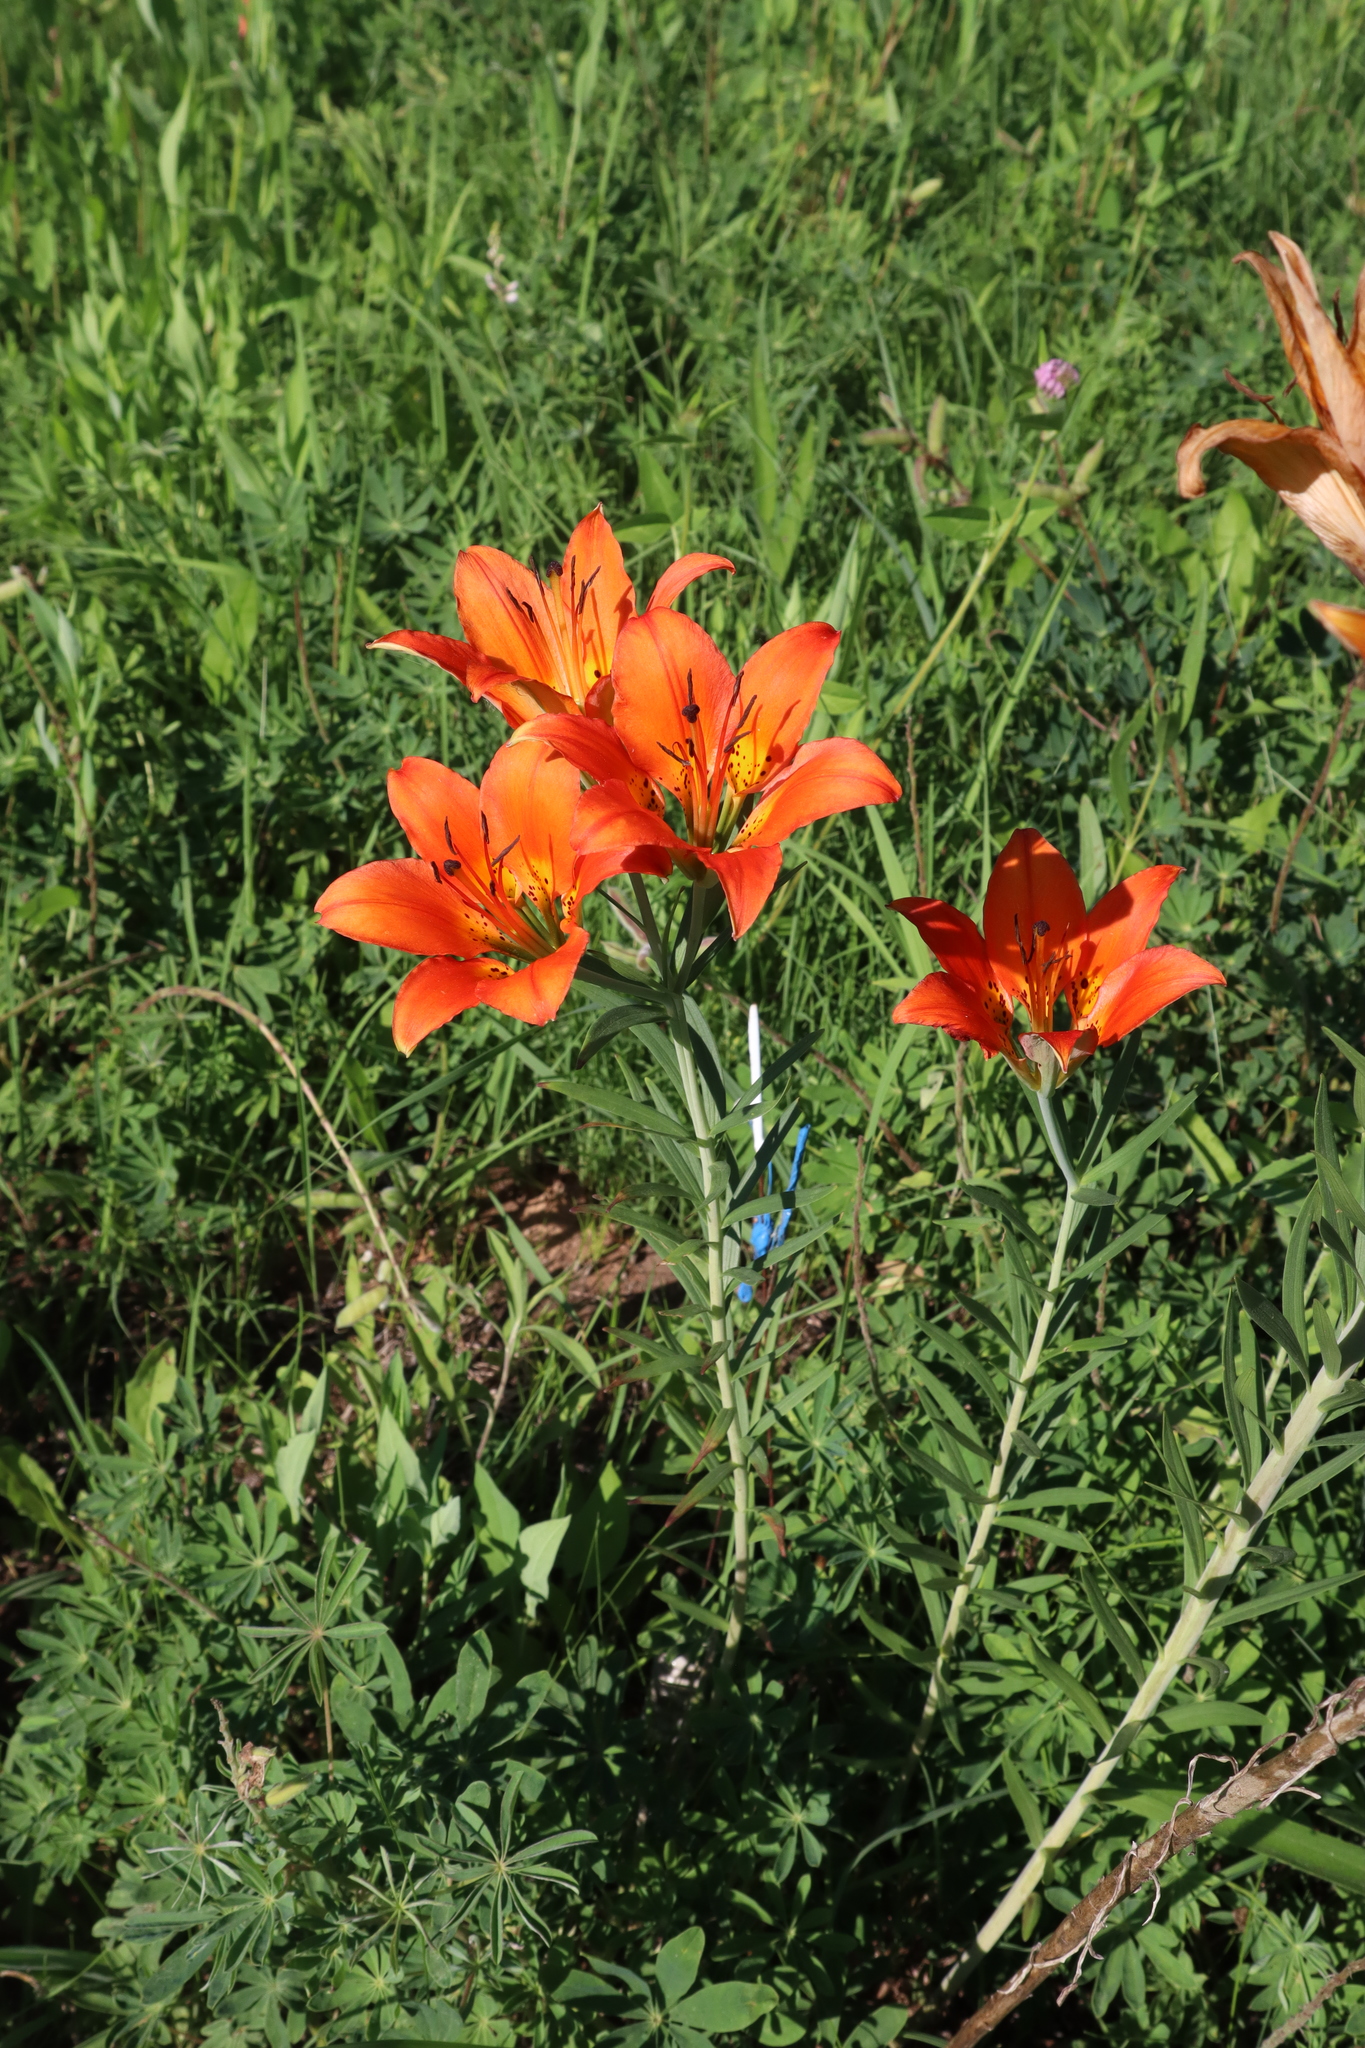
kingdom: Plantae
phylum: Tracheophyta
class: Liliopsida
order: Liliales
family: Liliaceae
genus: Lilium
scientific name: Lilium philadelphicum
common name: Red lily
